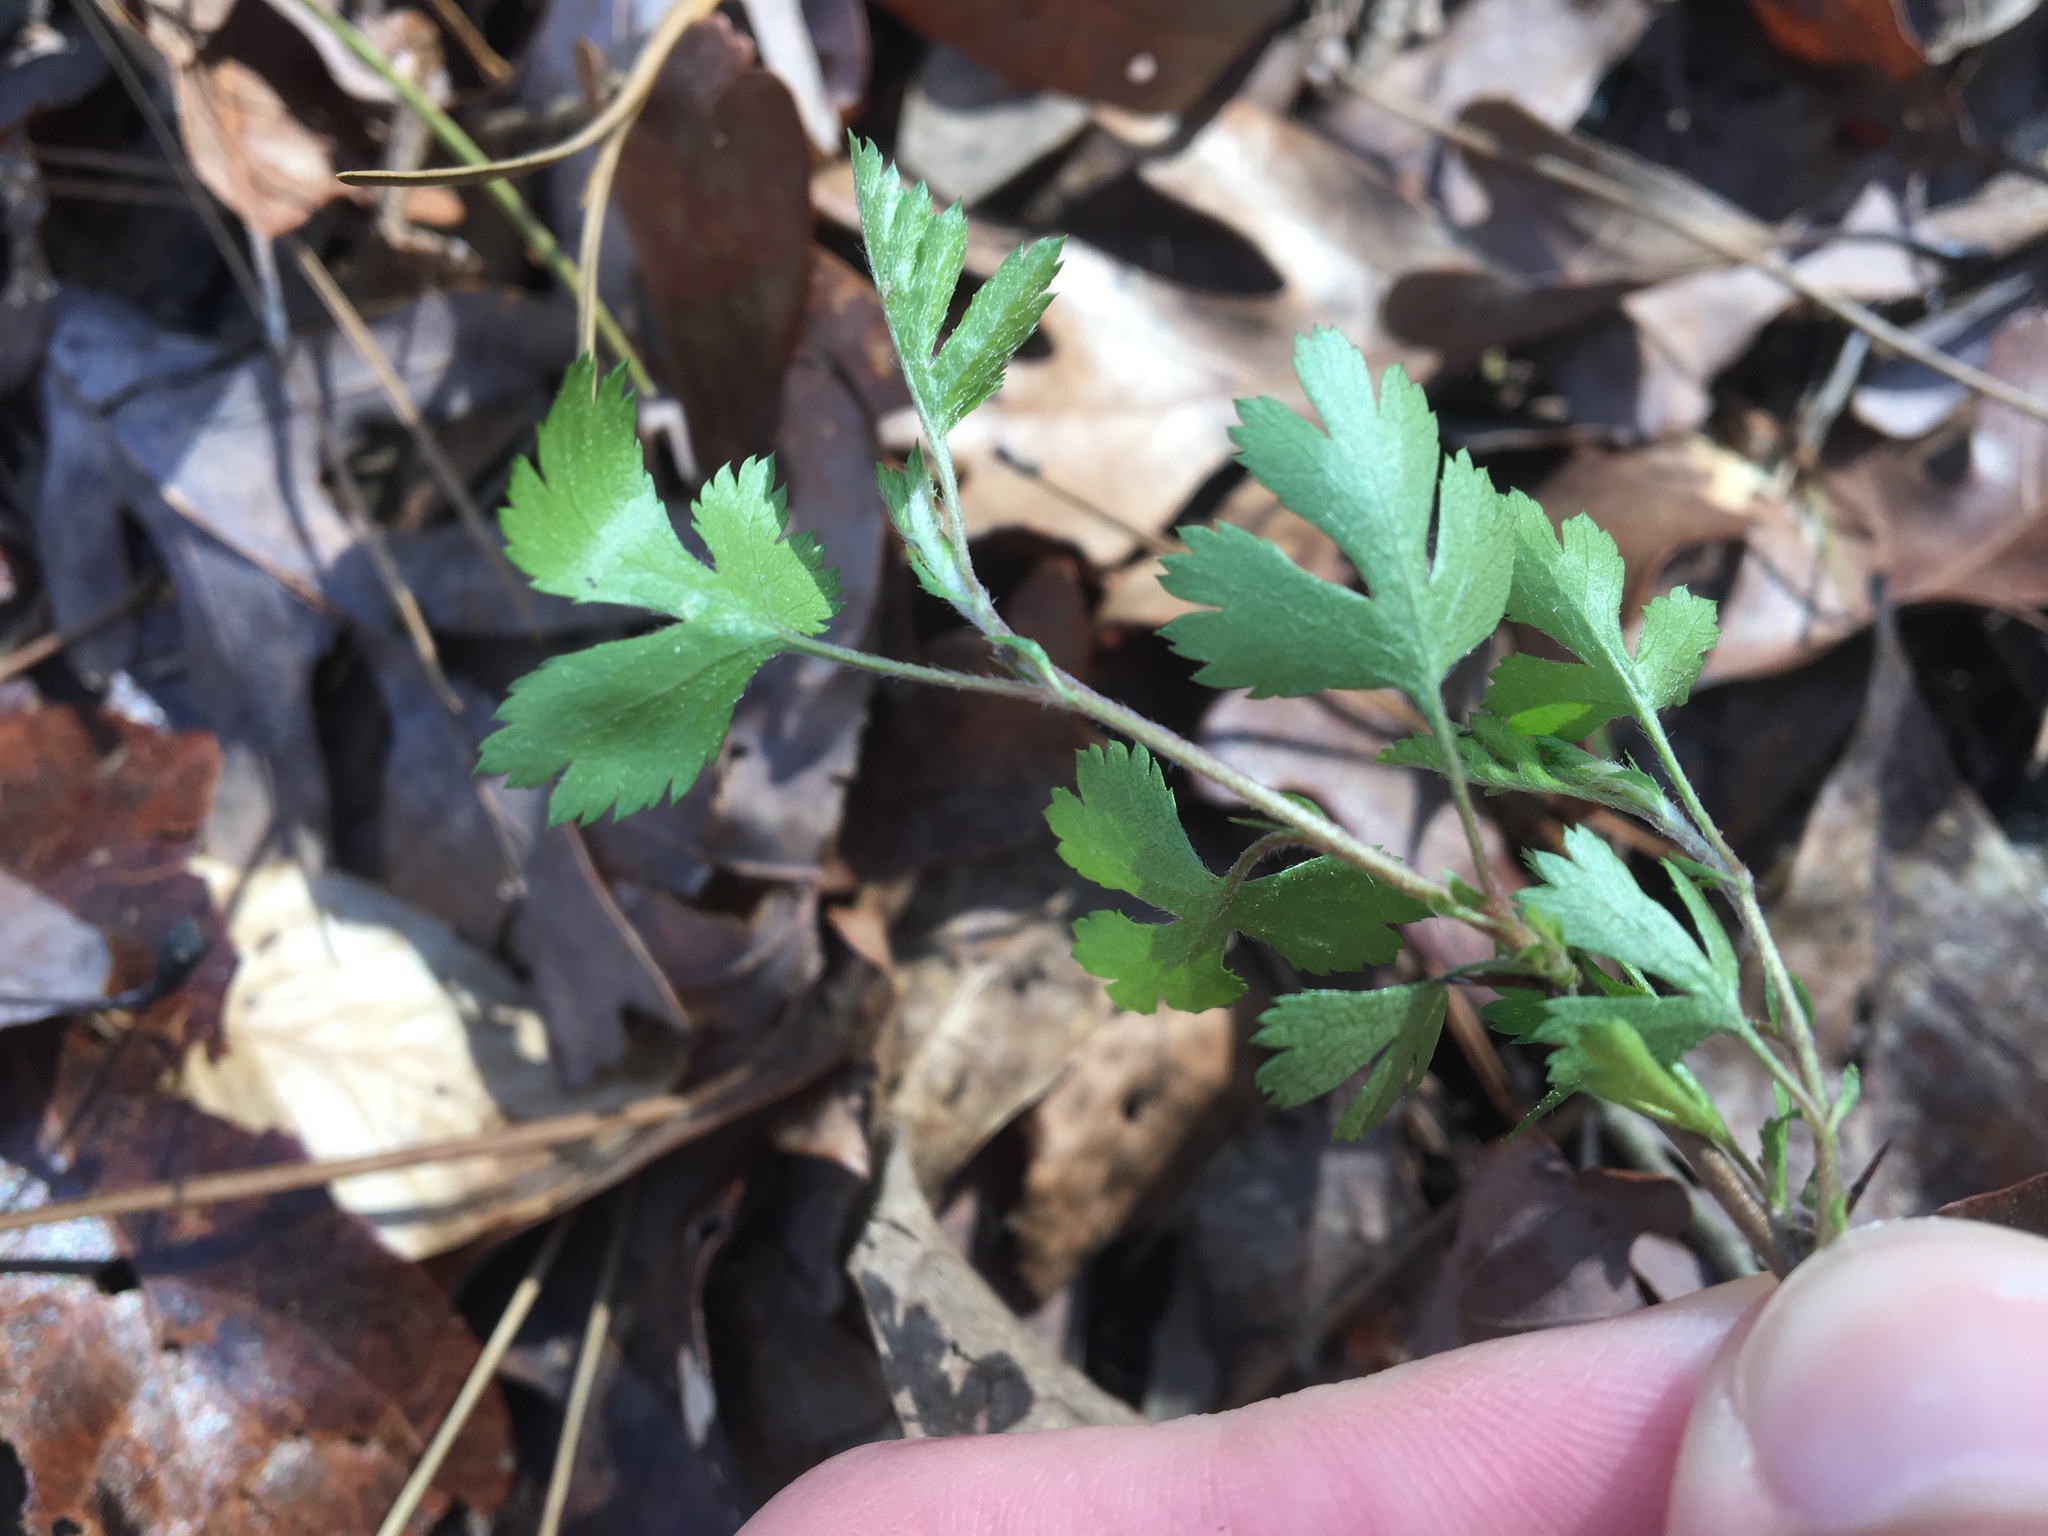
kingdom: Plantae
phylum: Tracheophyta
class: Magnoliopsida
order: Rosales
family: Rosaceae
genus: Crataegus
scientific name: Crataegus marshallii
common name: Parsley-hawthorn
